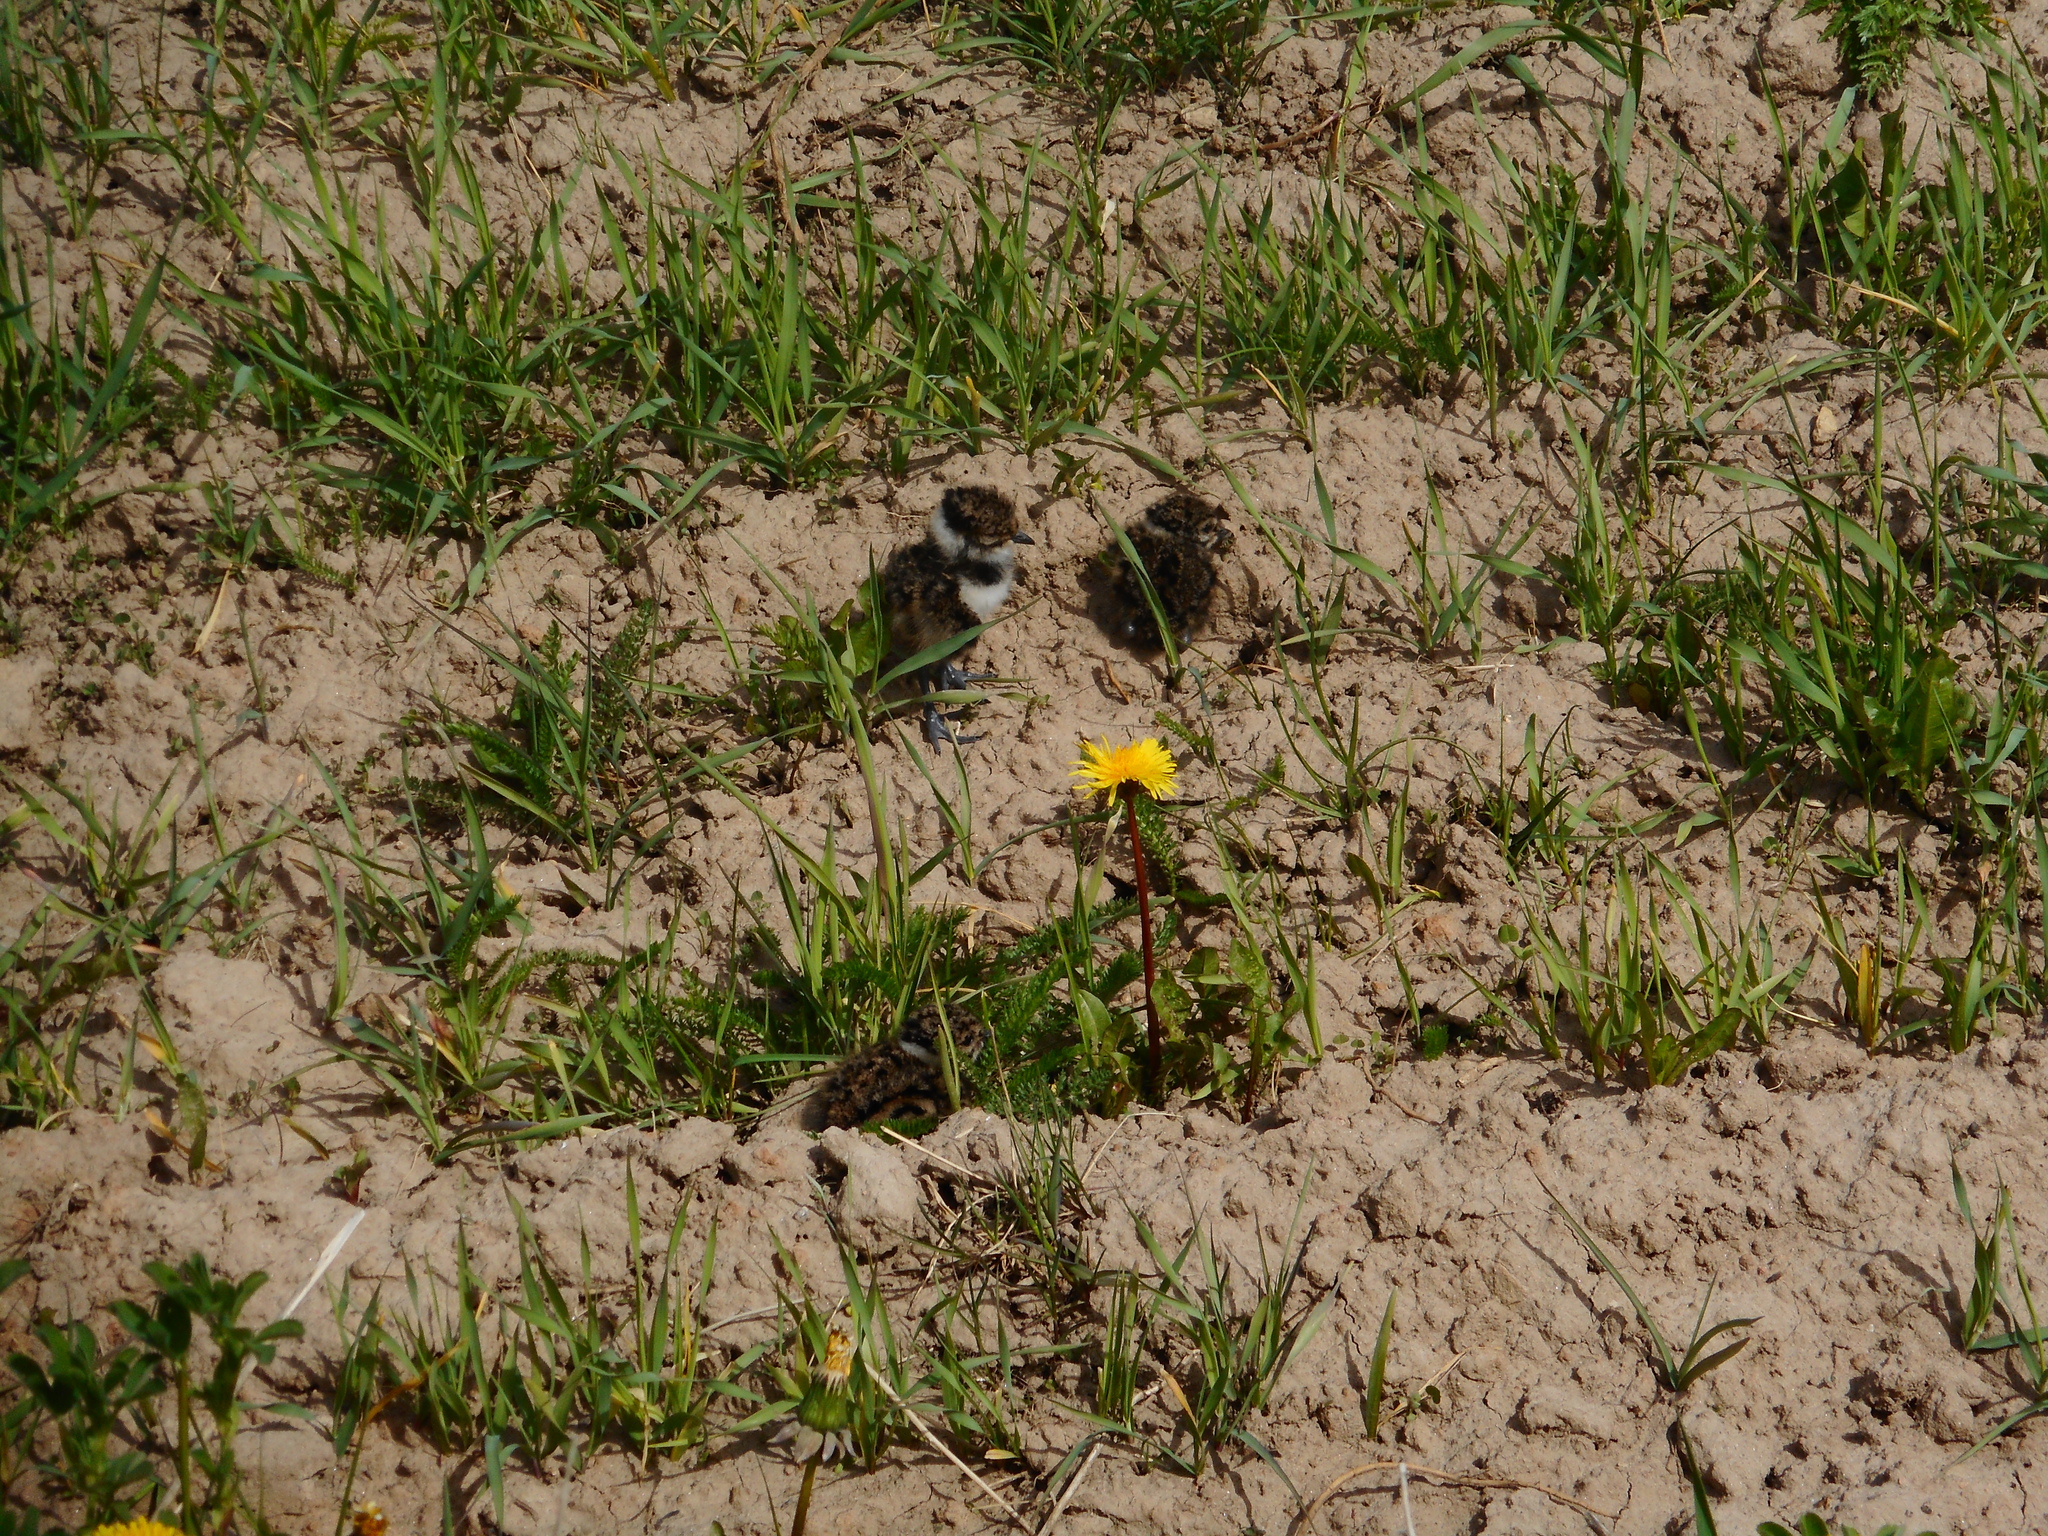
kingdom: Animalia
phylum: Chordata
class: Aves
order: Charadriiformes
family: Charadriidae
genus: Vanellus
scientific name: Vanellus vanellus
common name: Northern lapwing
